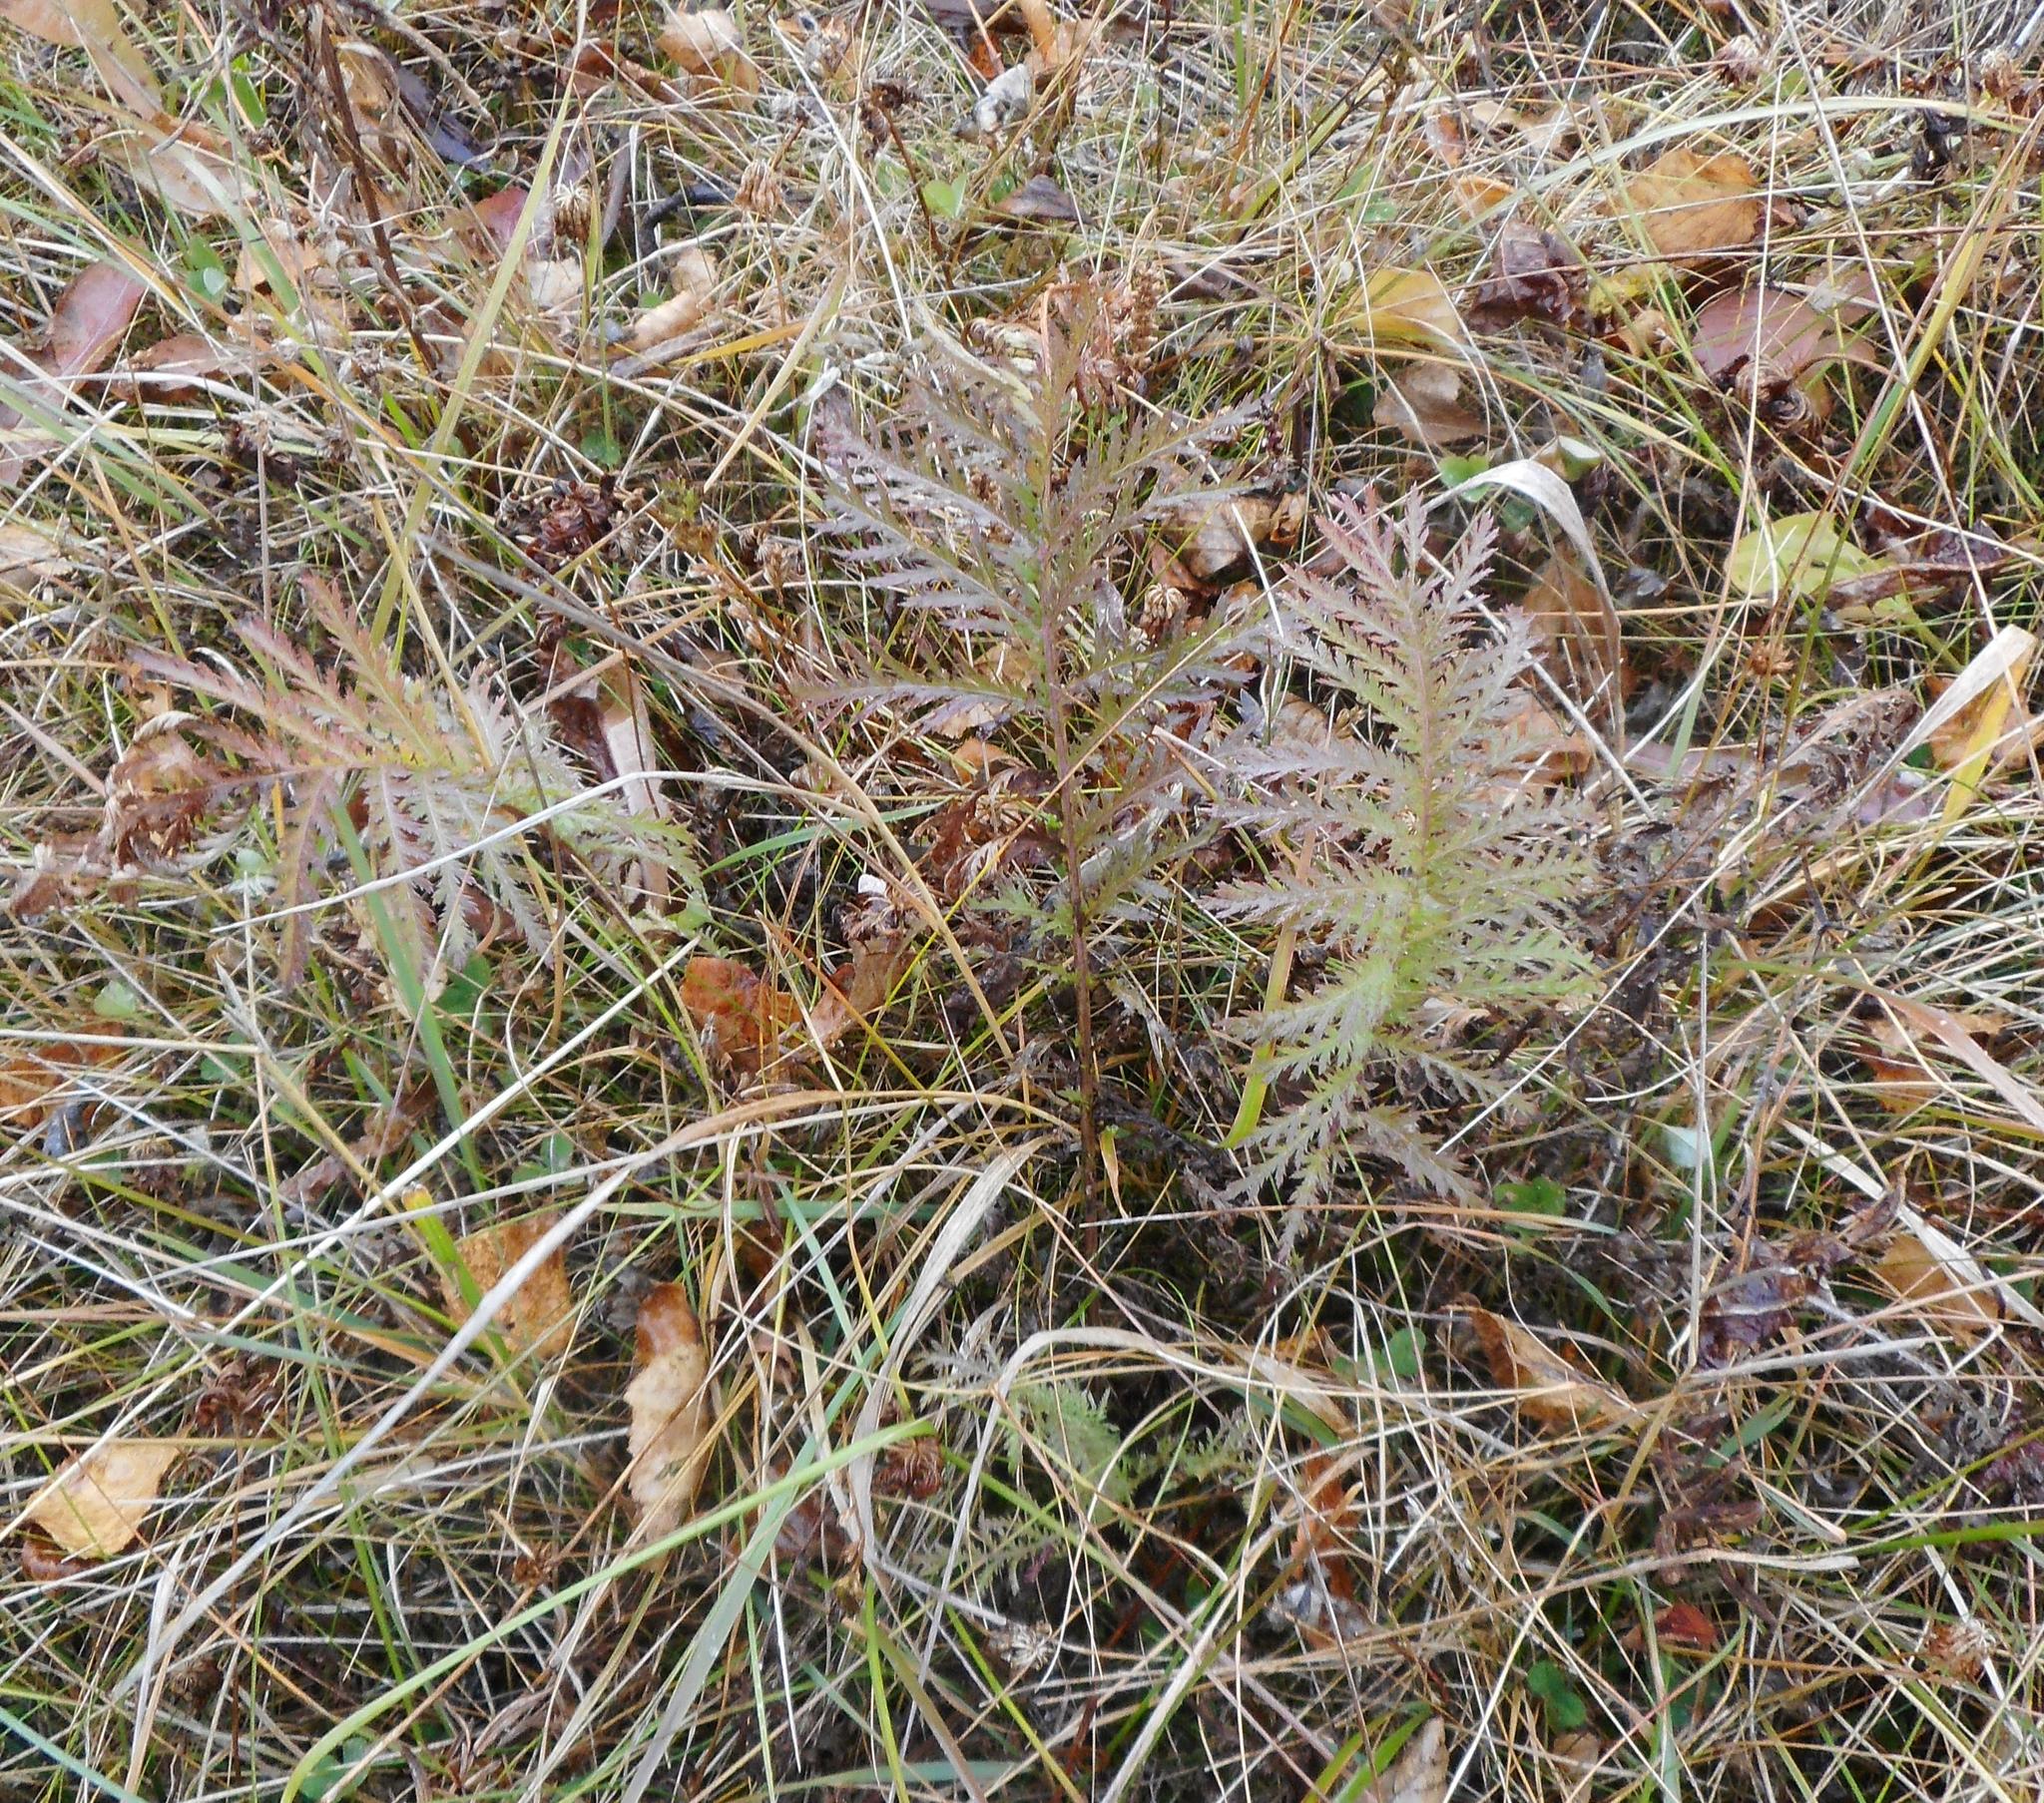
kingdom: Plantae
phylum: Tracheophyta
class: Magnoliopsida
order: Asterales
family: Asteraceae
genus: Tanacetum
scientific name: Tanacetum vulgare
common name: Common tansy
